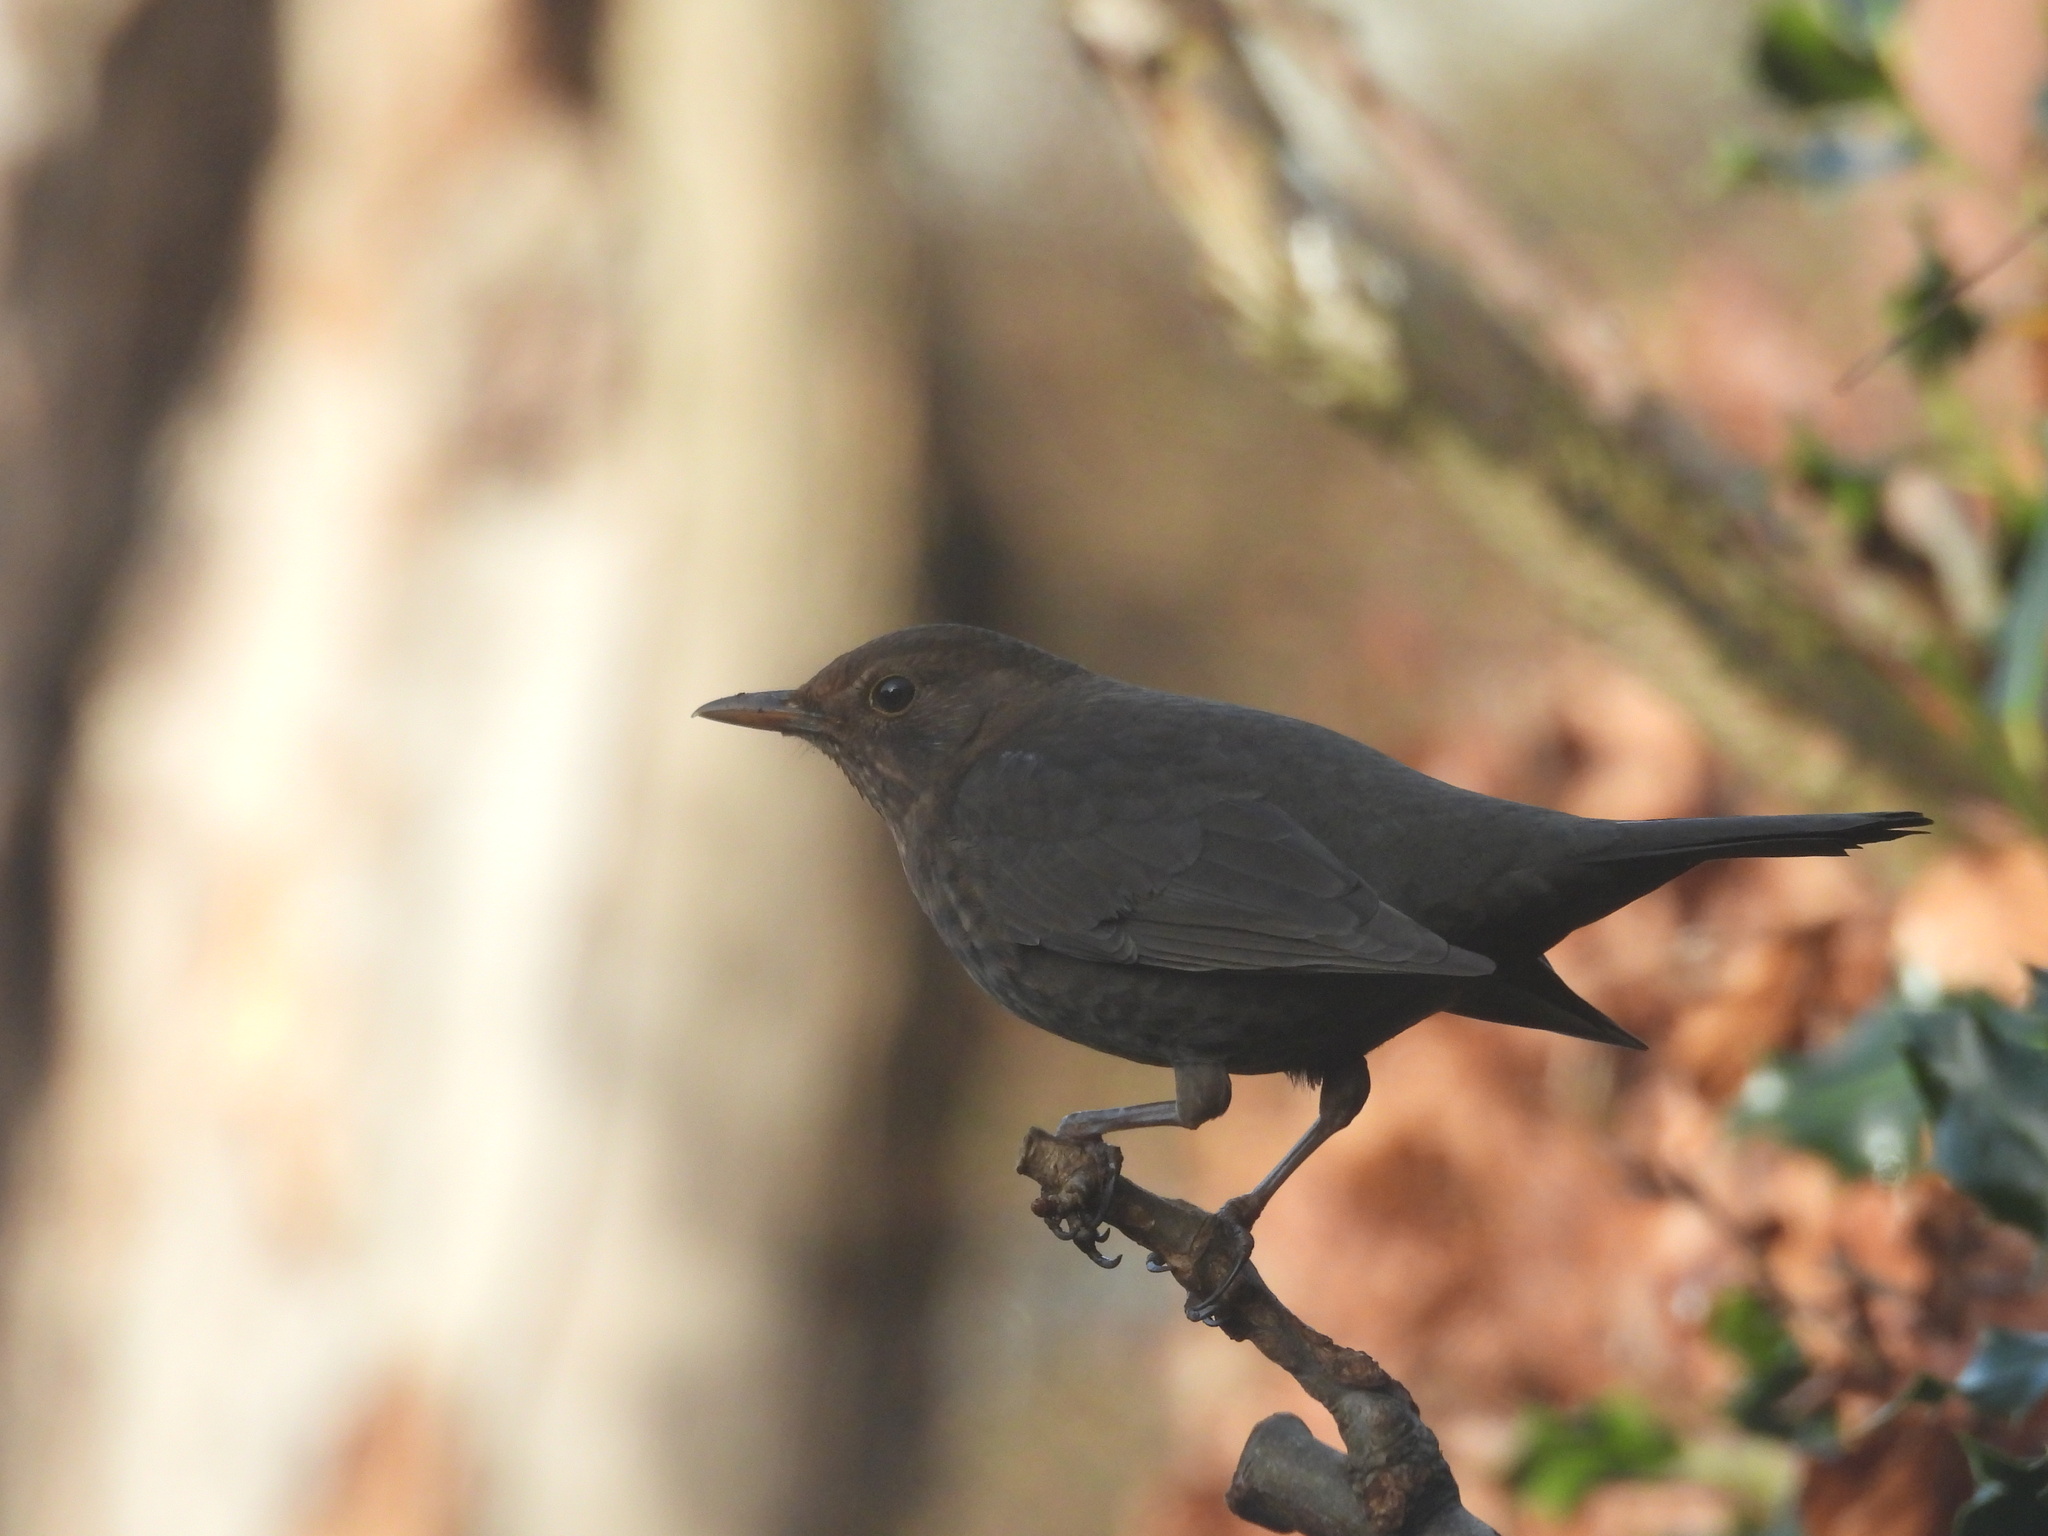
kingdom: Animalia
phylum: Chordata
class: Aves
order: Passeriformes
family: Turdidae
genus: Turdus
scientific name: Turdus merula
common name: Common blackbird
